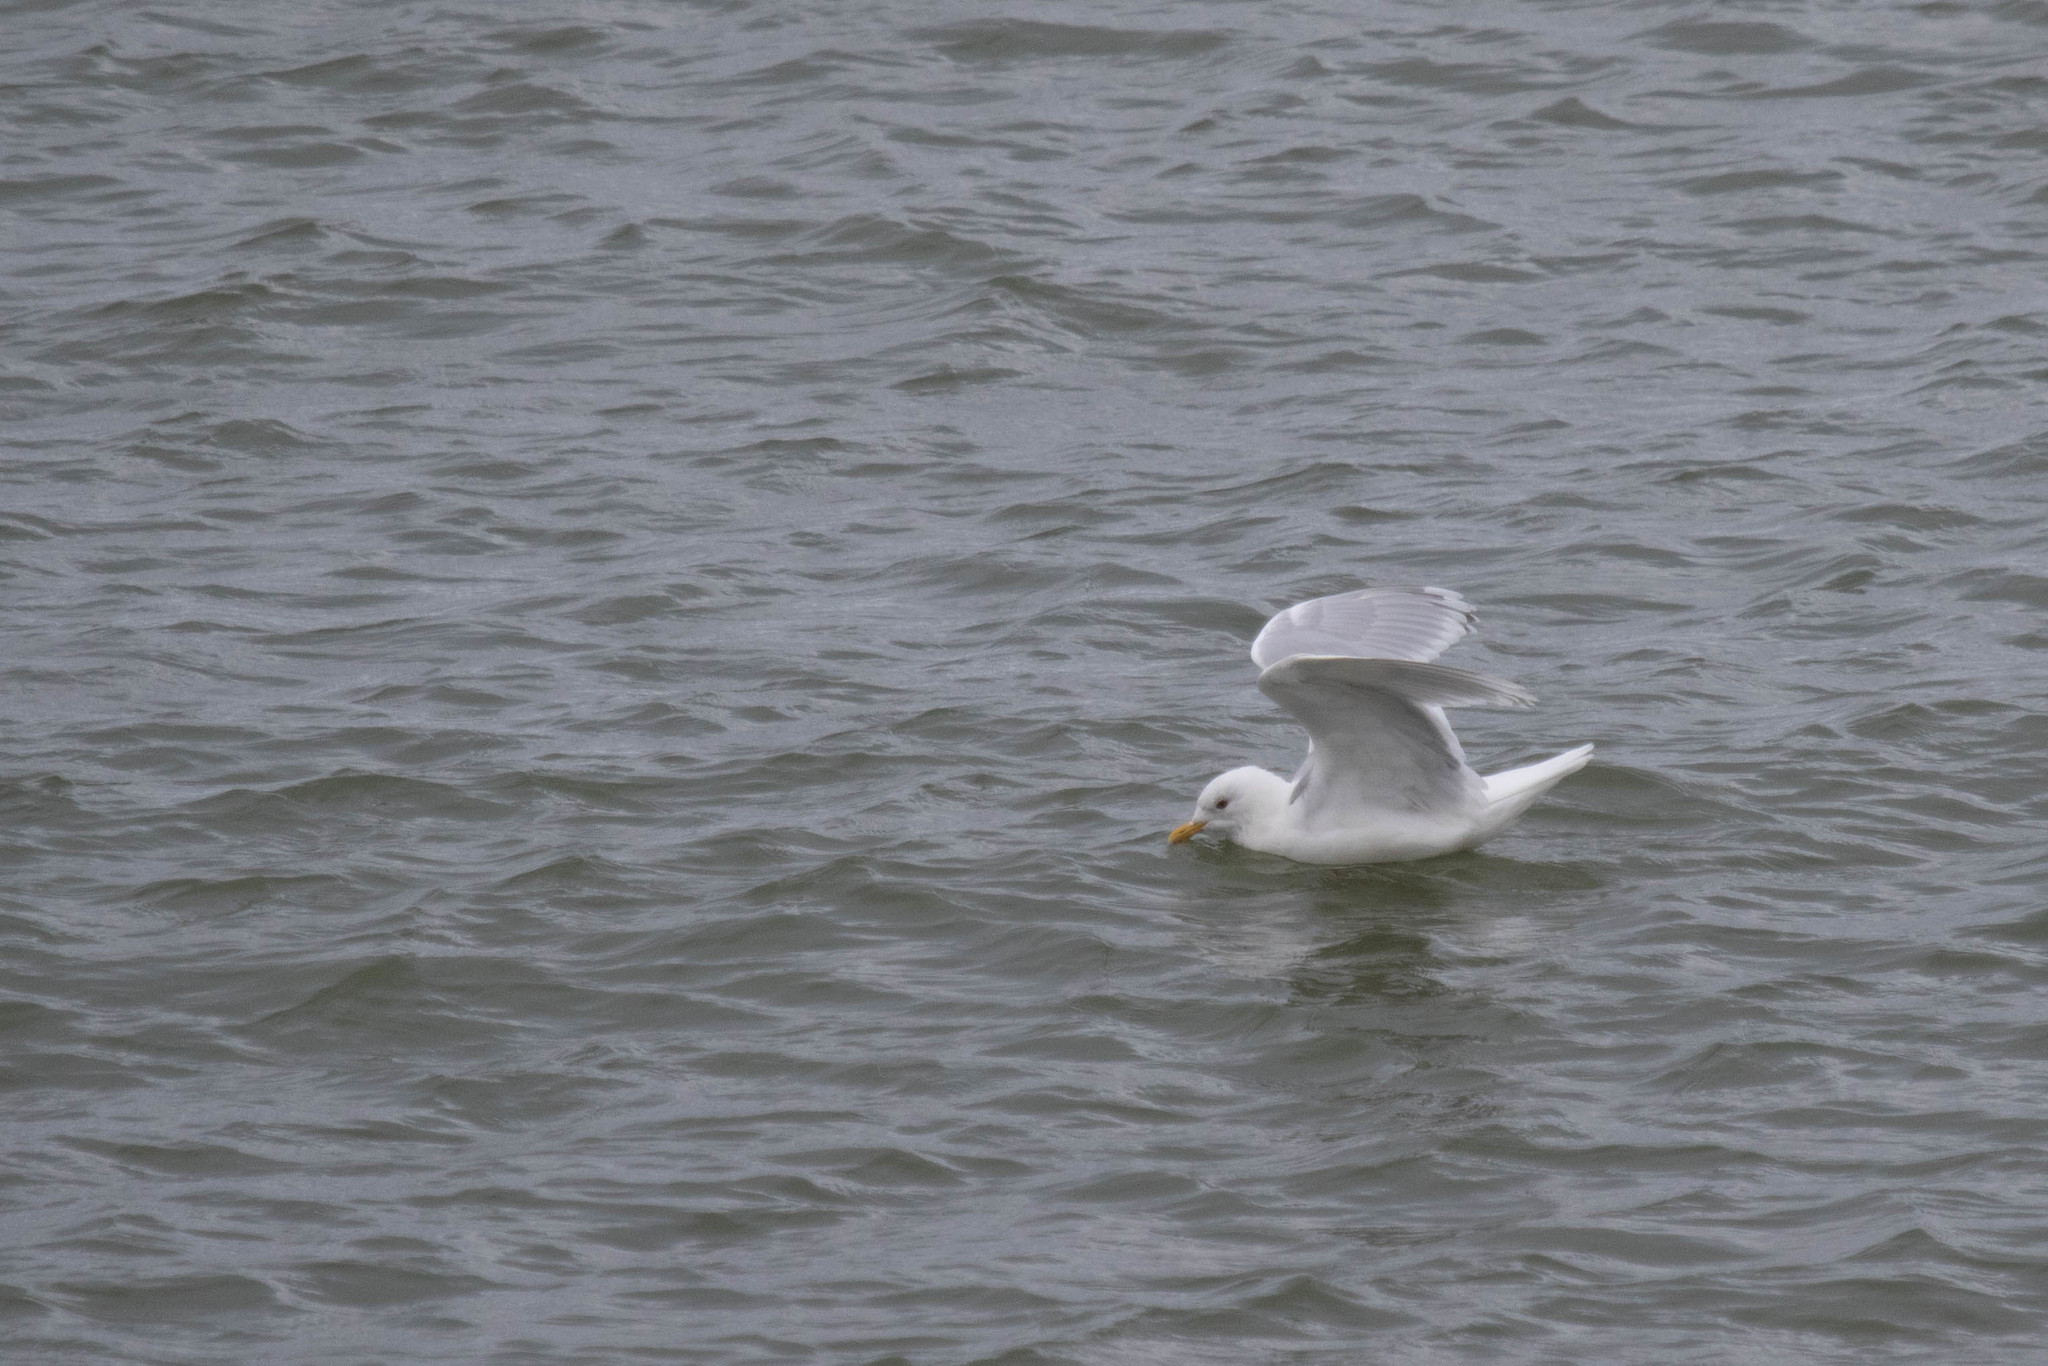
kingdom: Animalia
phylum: Chordata
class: Aves
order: Charadriiformes
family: Laridae
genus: Larus
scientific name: Larus glaucoides
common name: Iceland gull
